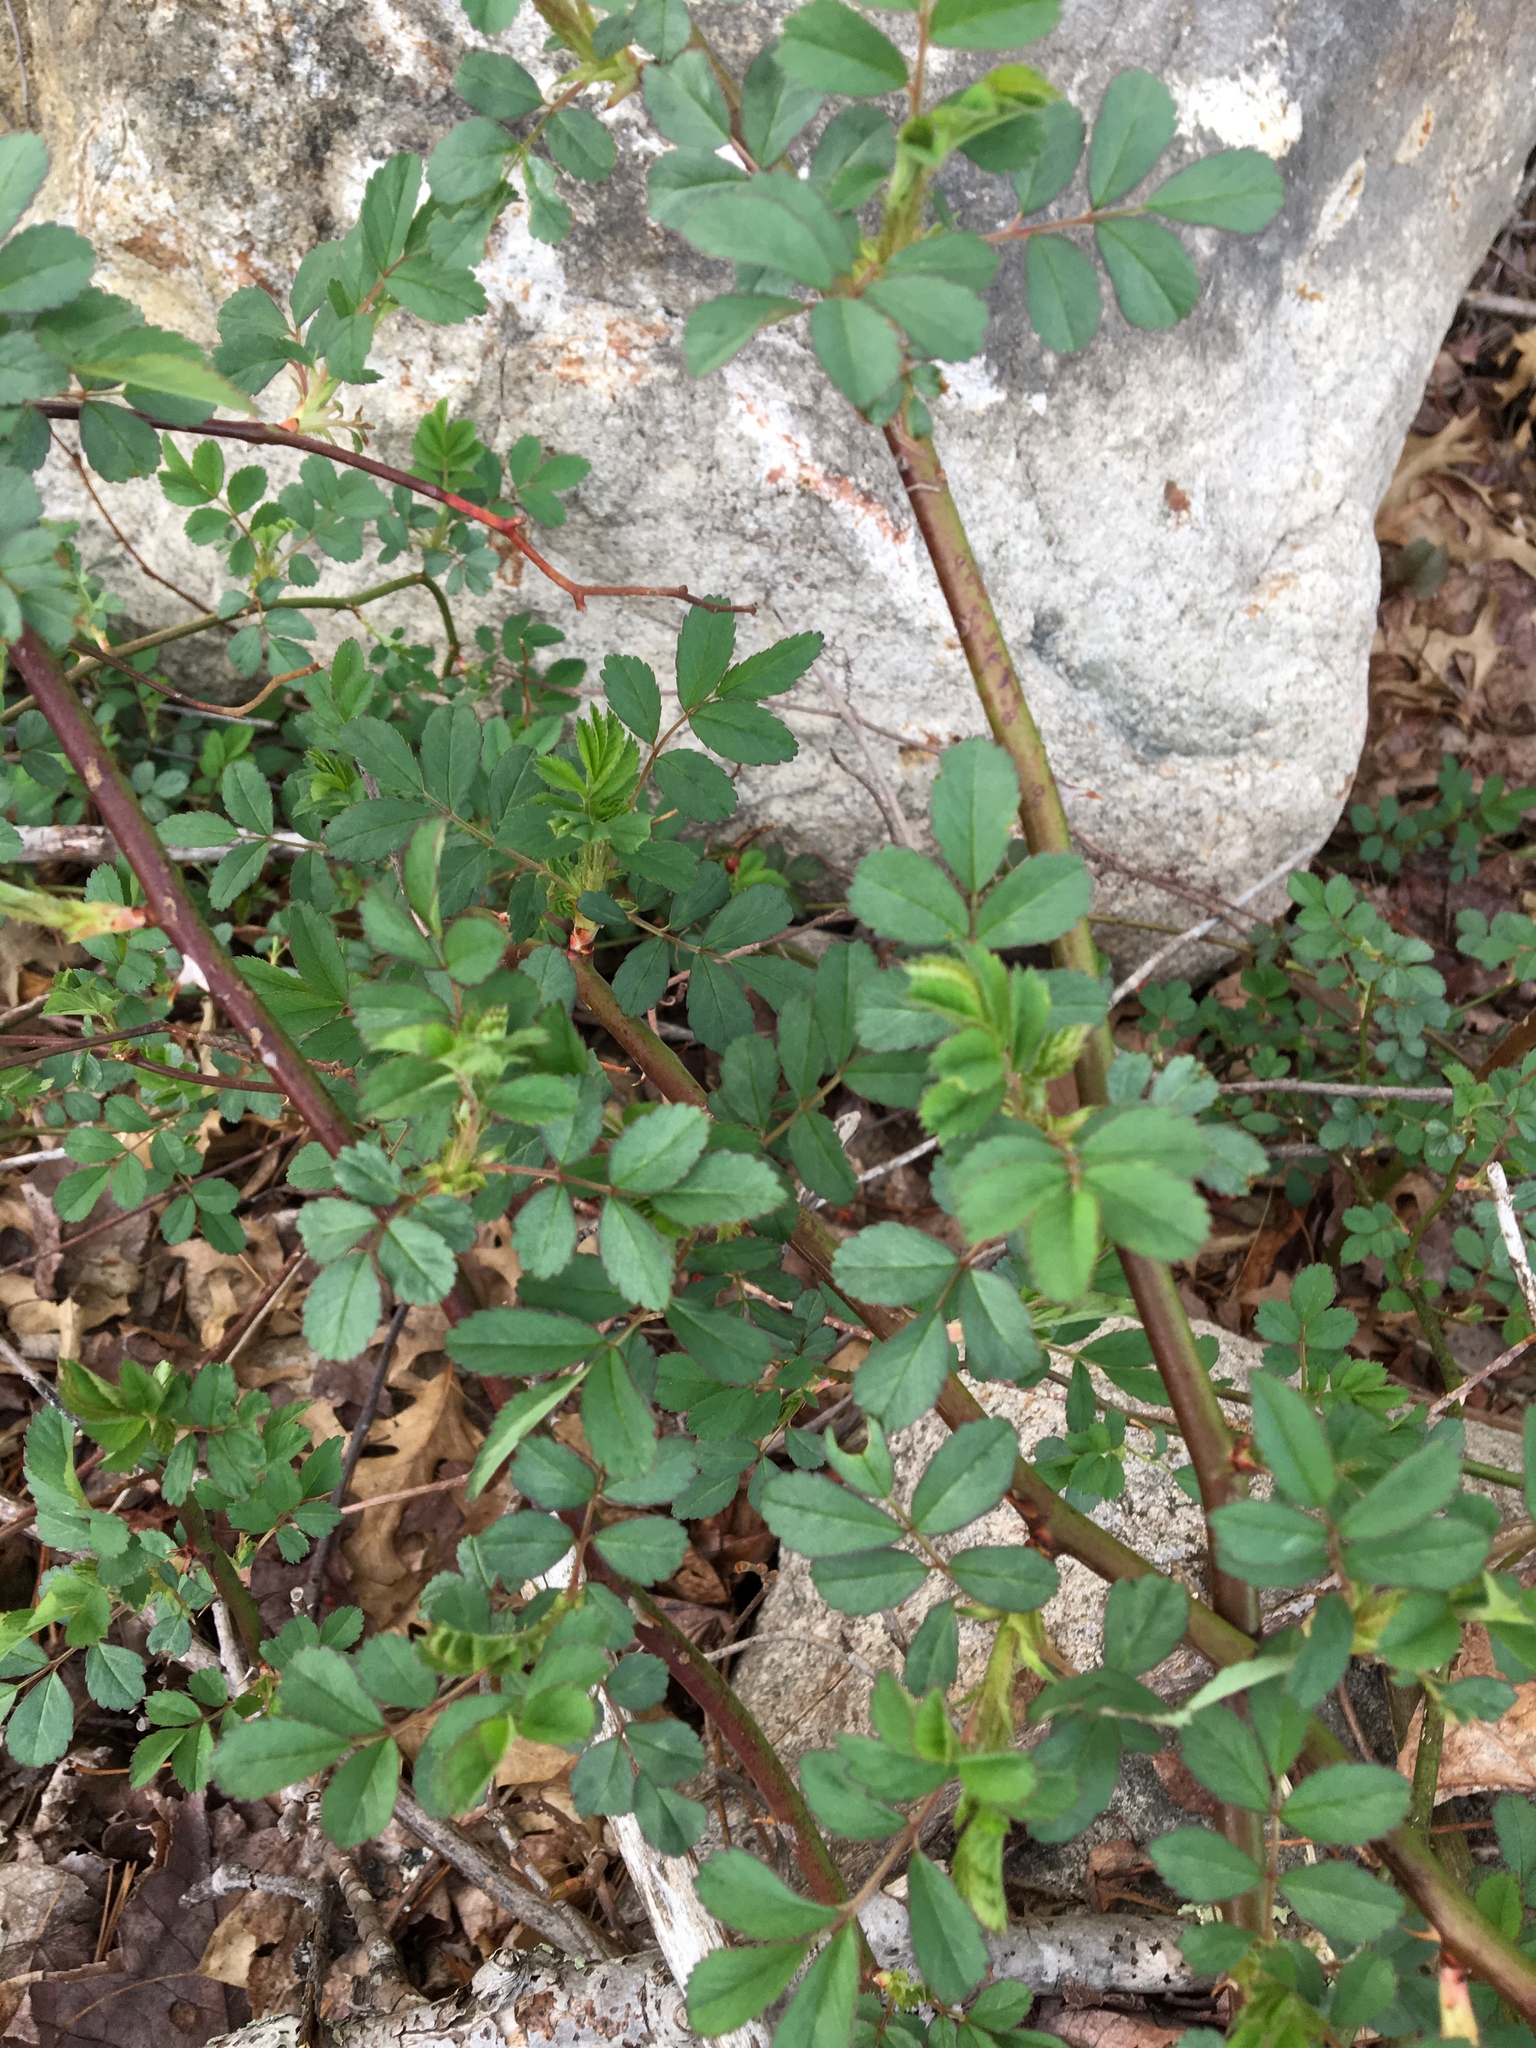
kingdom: Plantae
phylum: Tracheophyta
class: Magnoliopsida
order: Rosales
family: Rosaceae
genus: Rosa
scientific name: Rosa multiflora
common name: Multiflora rose
